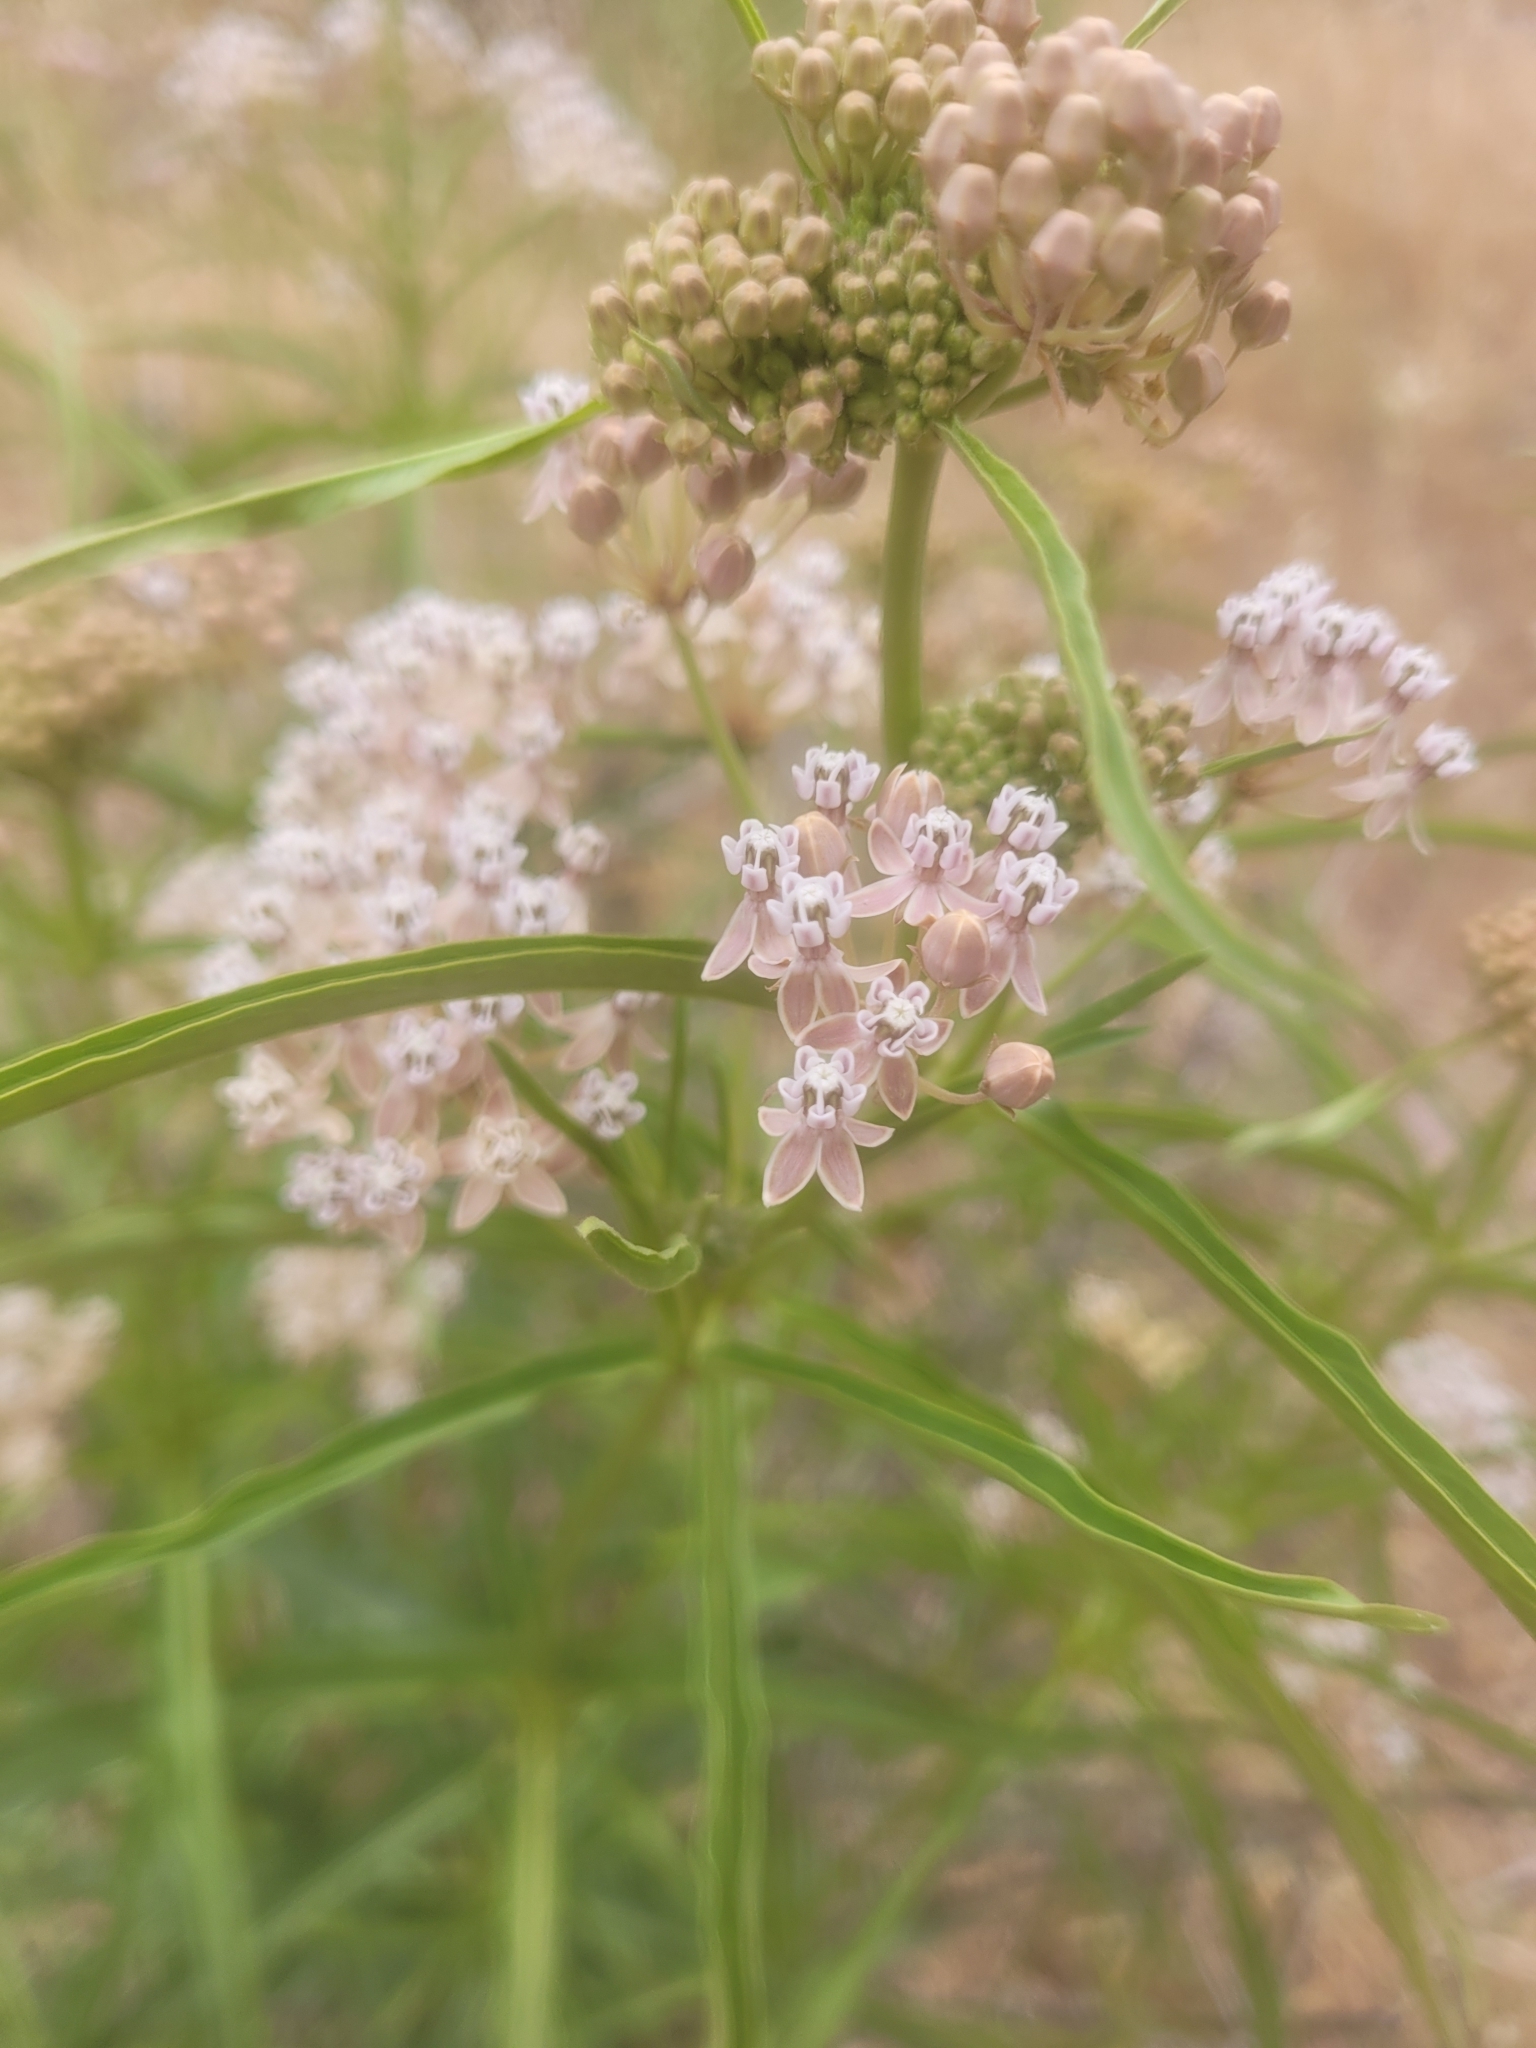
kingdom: Plantae
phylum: Tracheophyta
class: Magnoliopsida
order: Gentianales
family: Apocynaceae
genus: Asclepias
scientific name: Asclepias fascicularis
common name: Mexican milkweed
